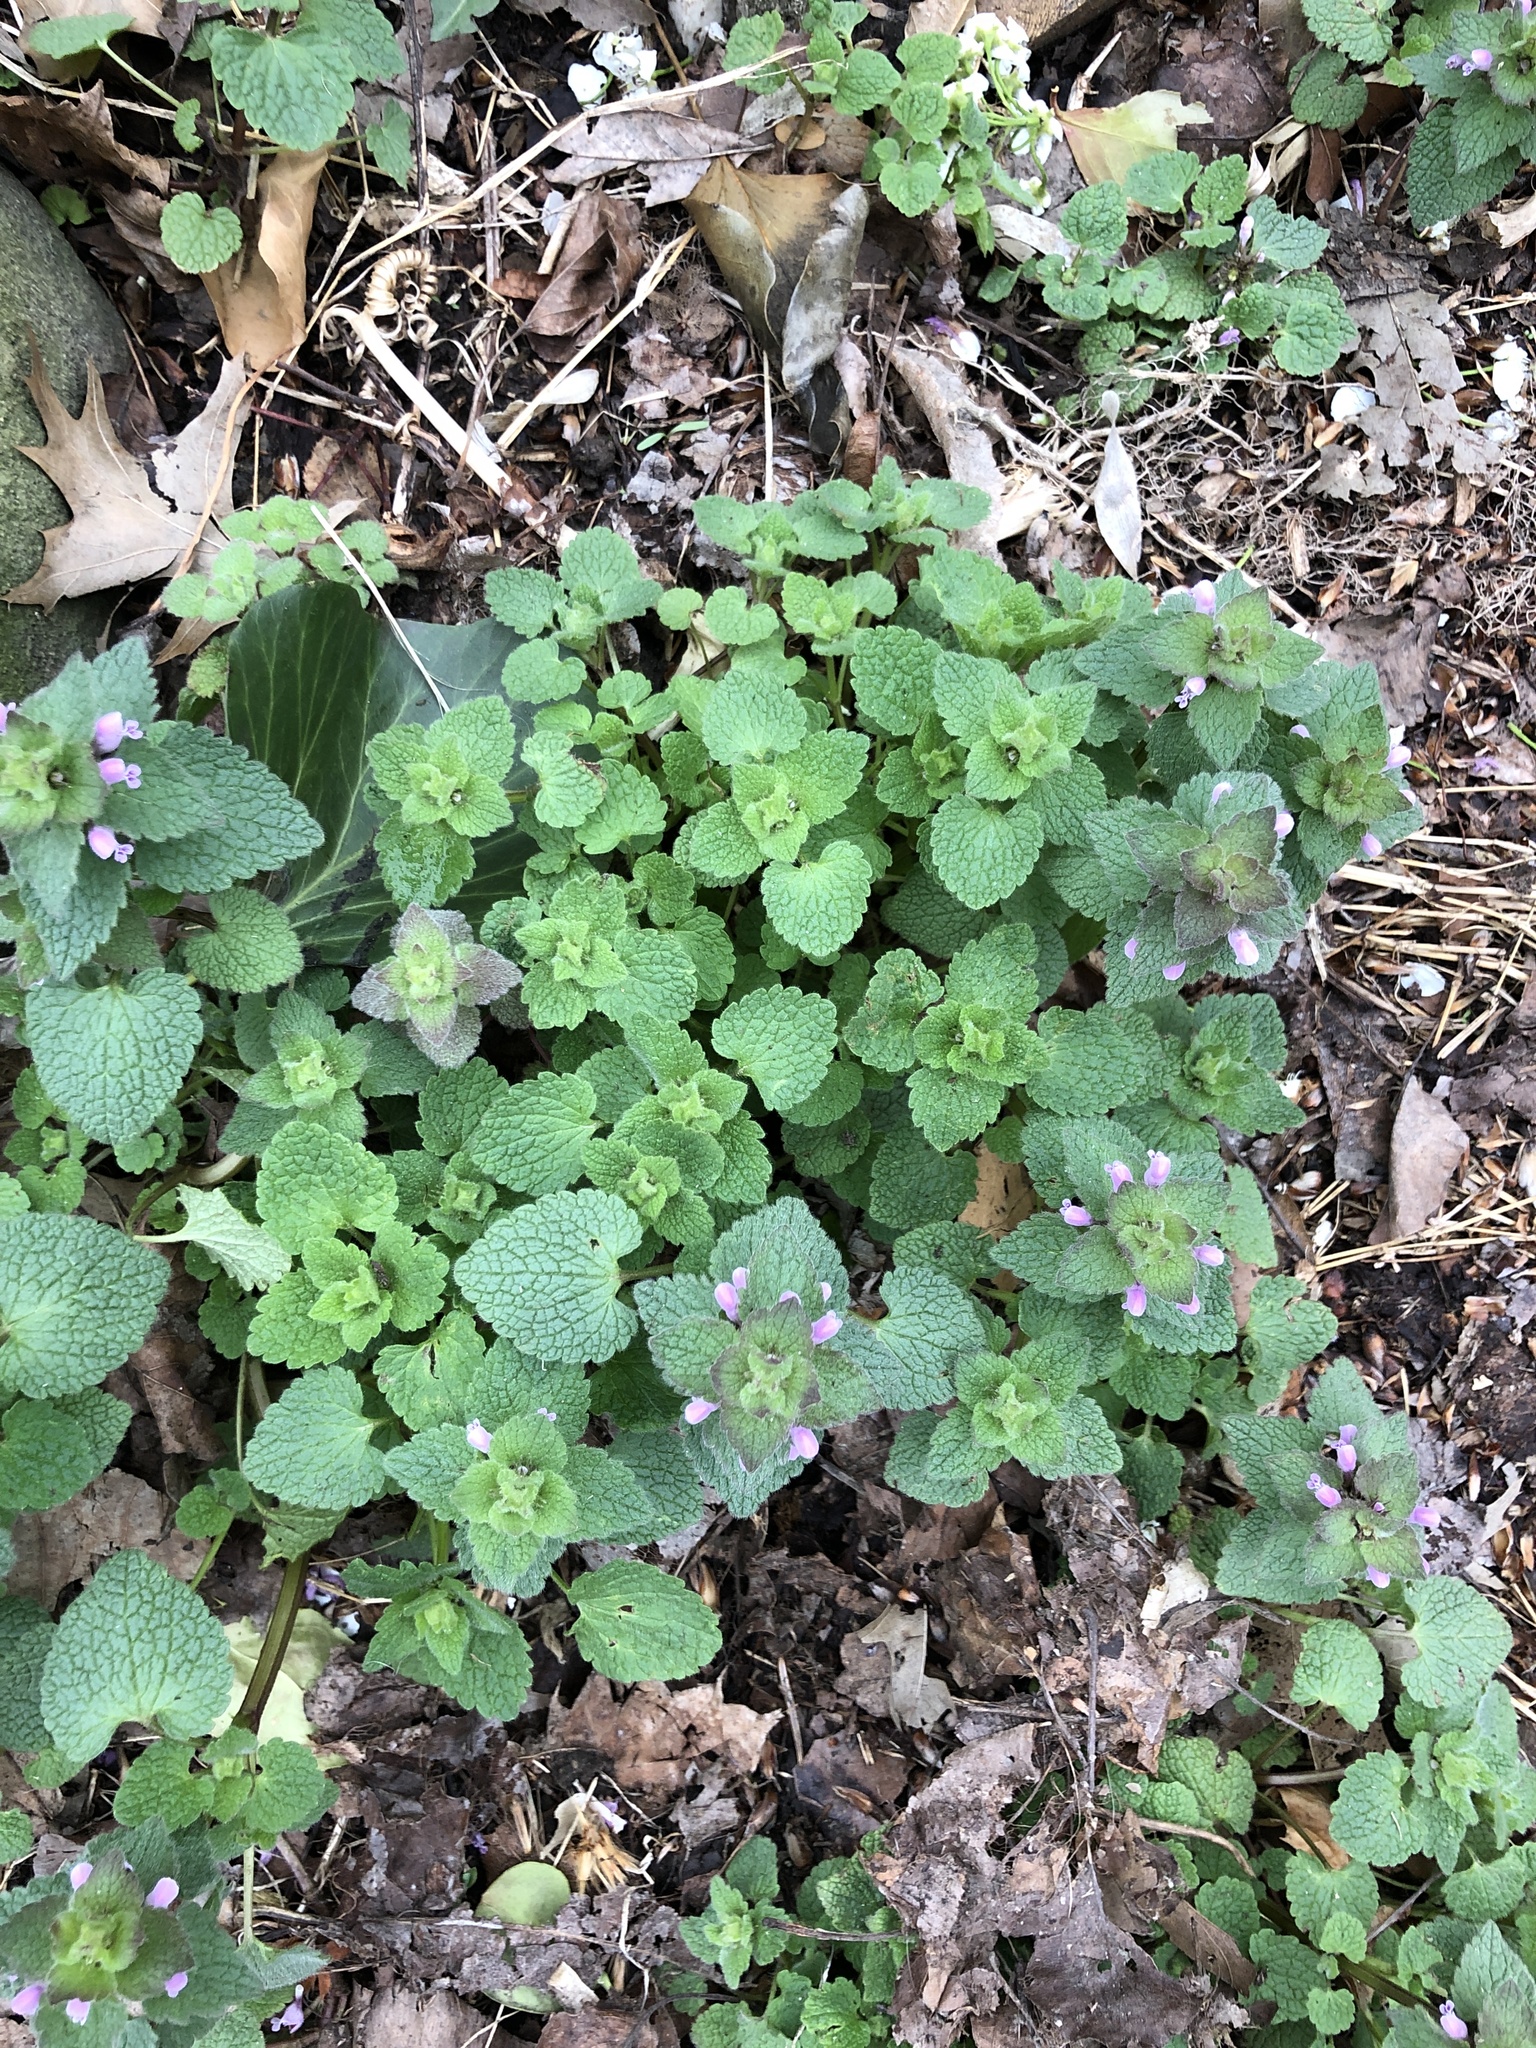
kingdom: Plantae
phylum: Tracheophyta
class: Magnoliopsida
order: Lamiales
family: Lamiaceae
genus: Lamium
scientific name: Lamium purpureum
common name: Red dead-nettle
